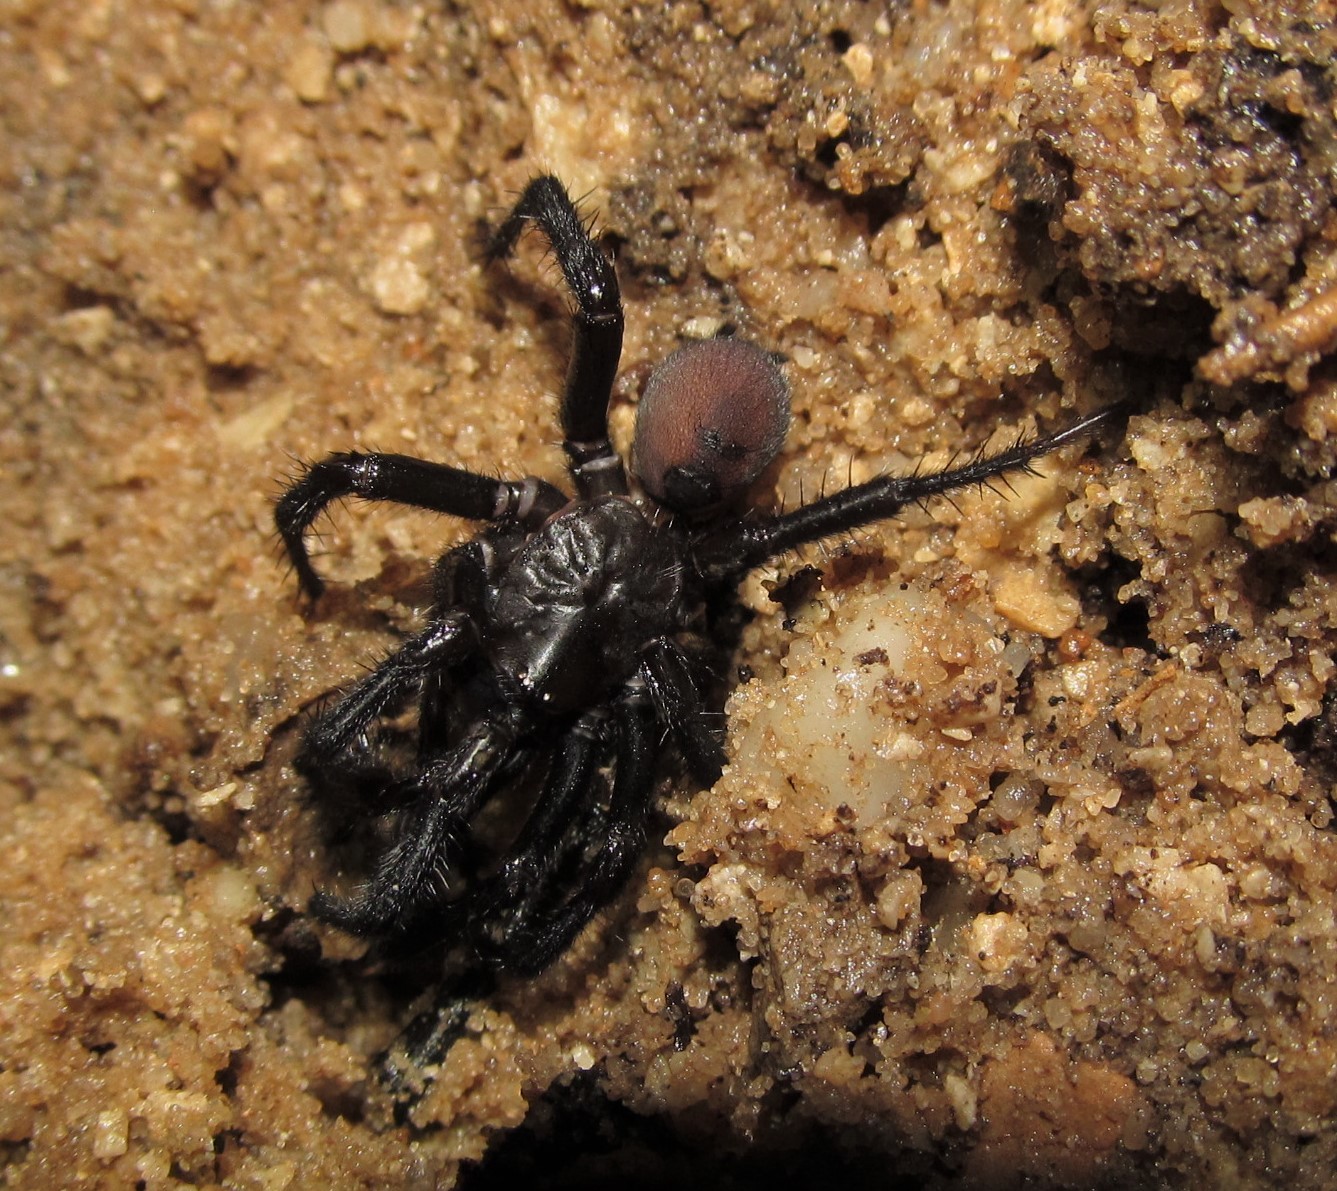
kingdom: Animalia
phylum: Arthropoda
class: Arachnida
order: Araneae
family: Antrodiaetidae
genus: Antrodiaetus
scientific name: Antrodiaetus unicolor
